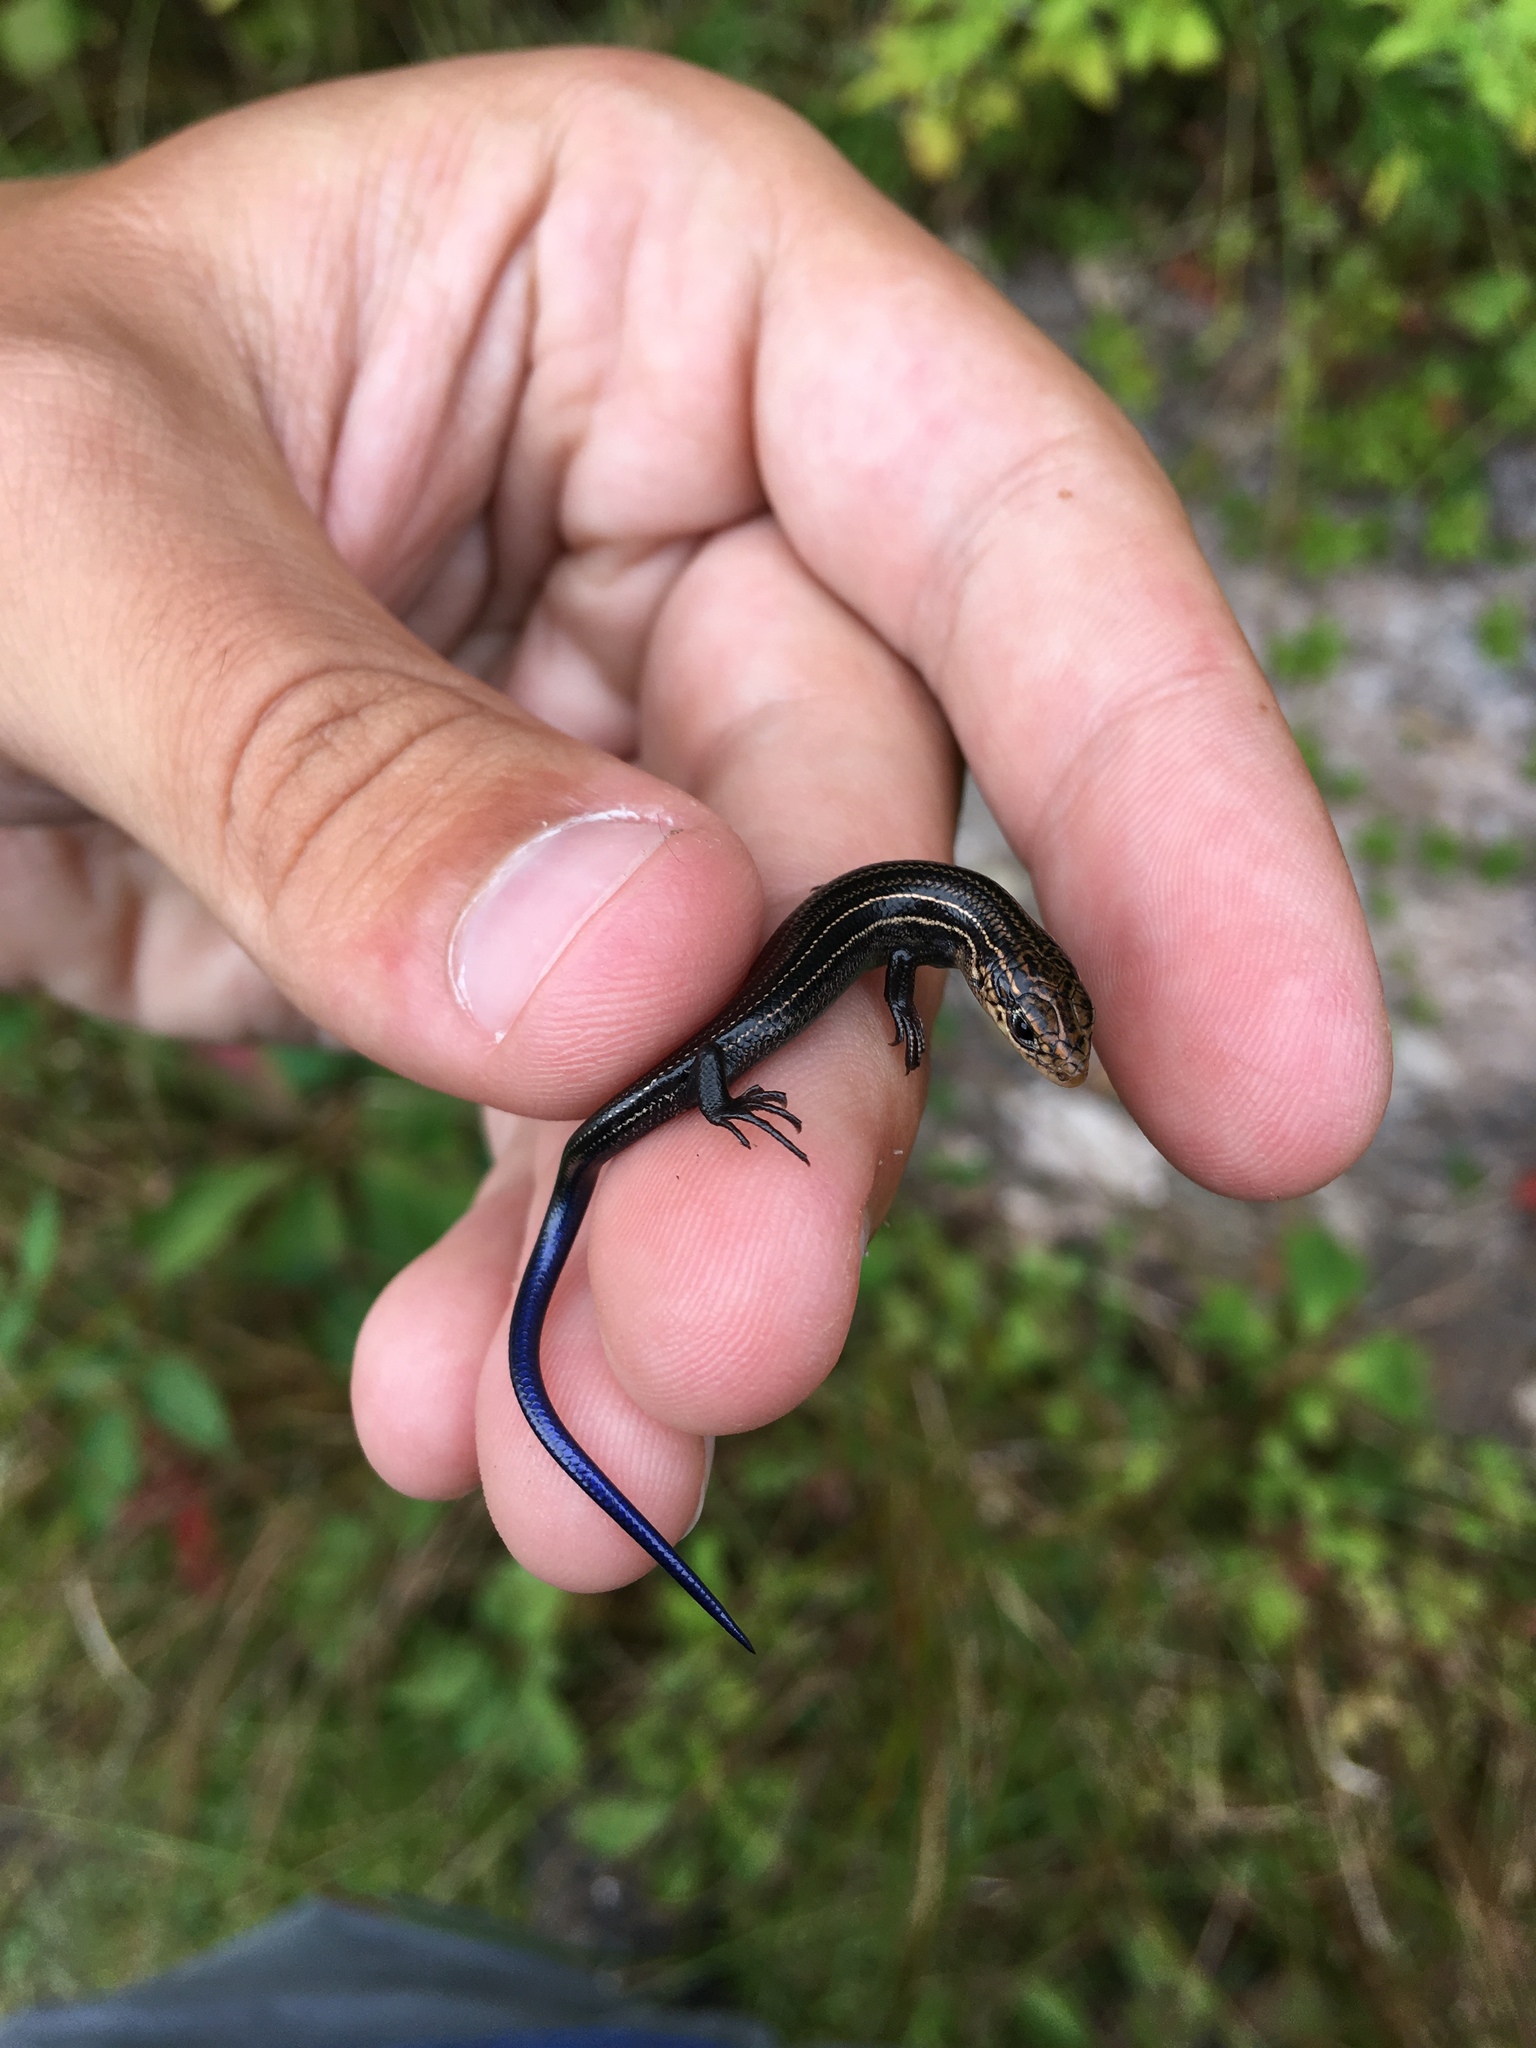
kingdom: Animalia
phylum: Chordata
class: Squamata
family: Scincidae
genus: Plestiodon
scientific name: Plestiodon septentrionalis
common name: Northern prairie skink
